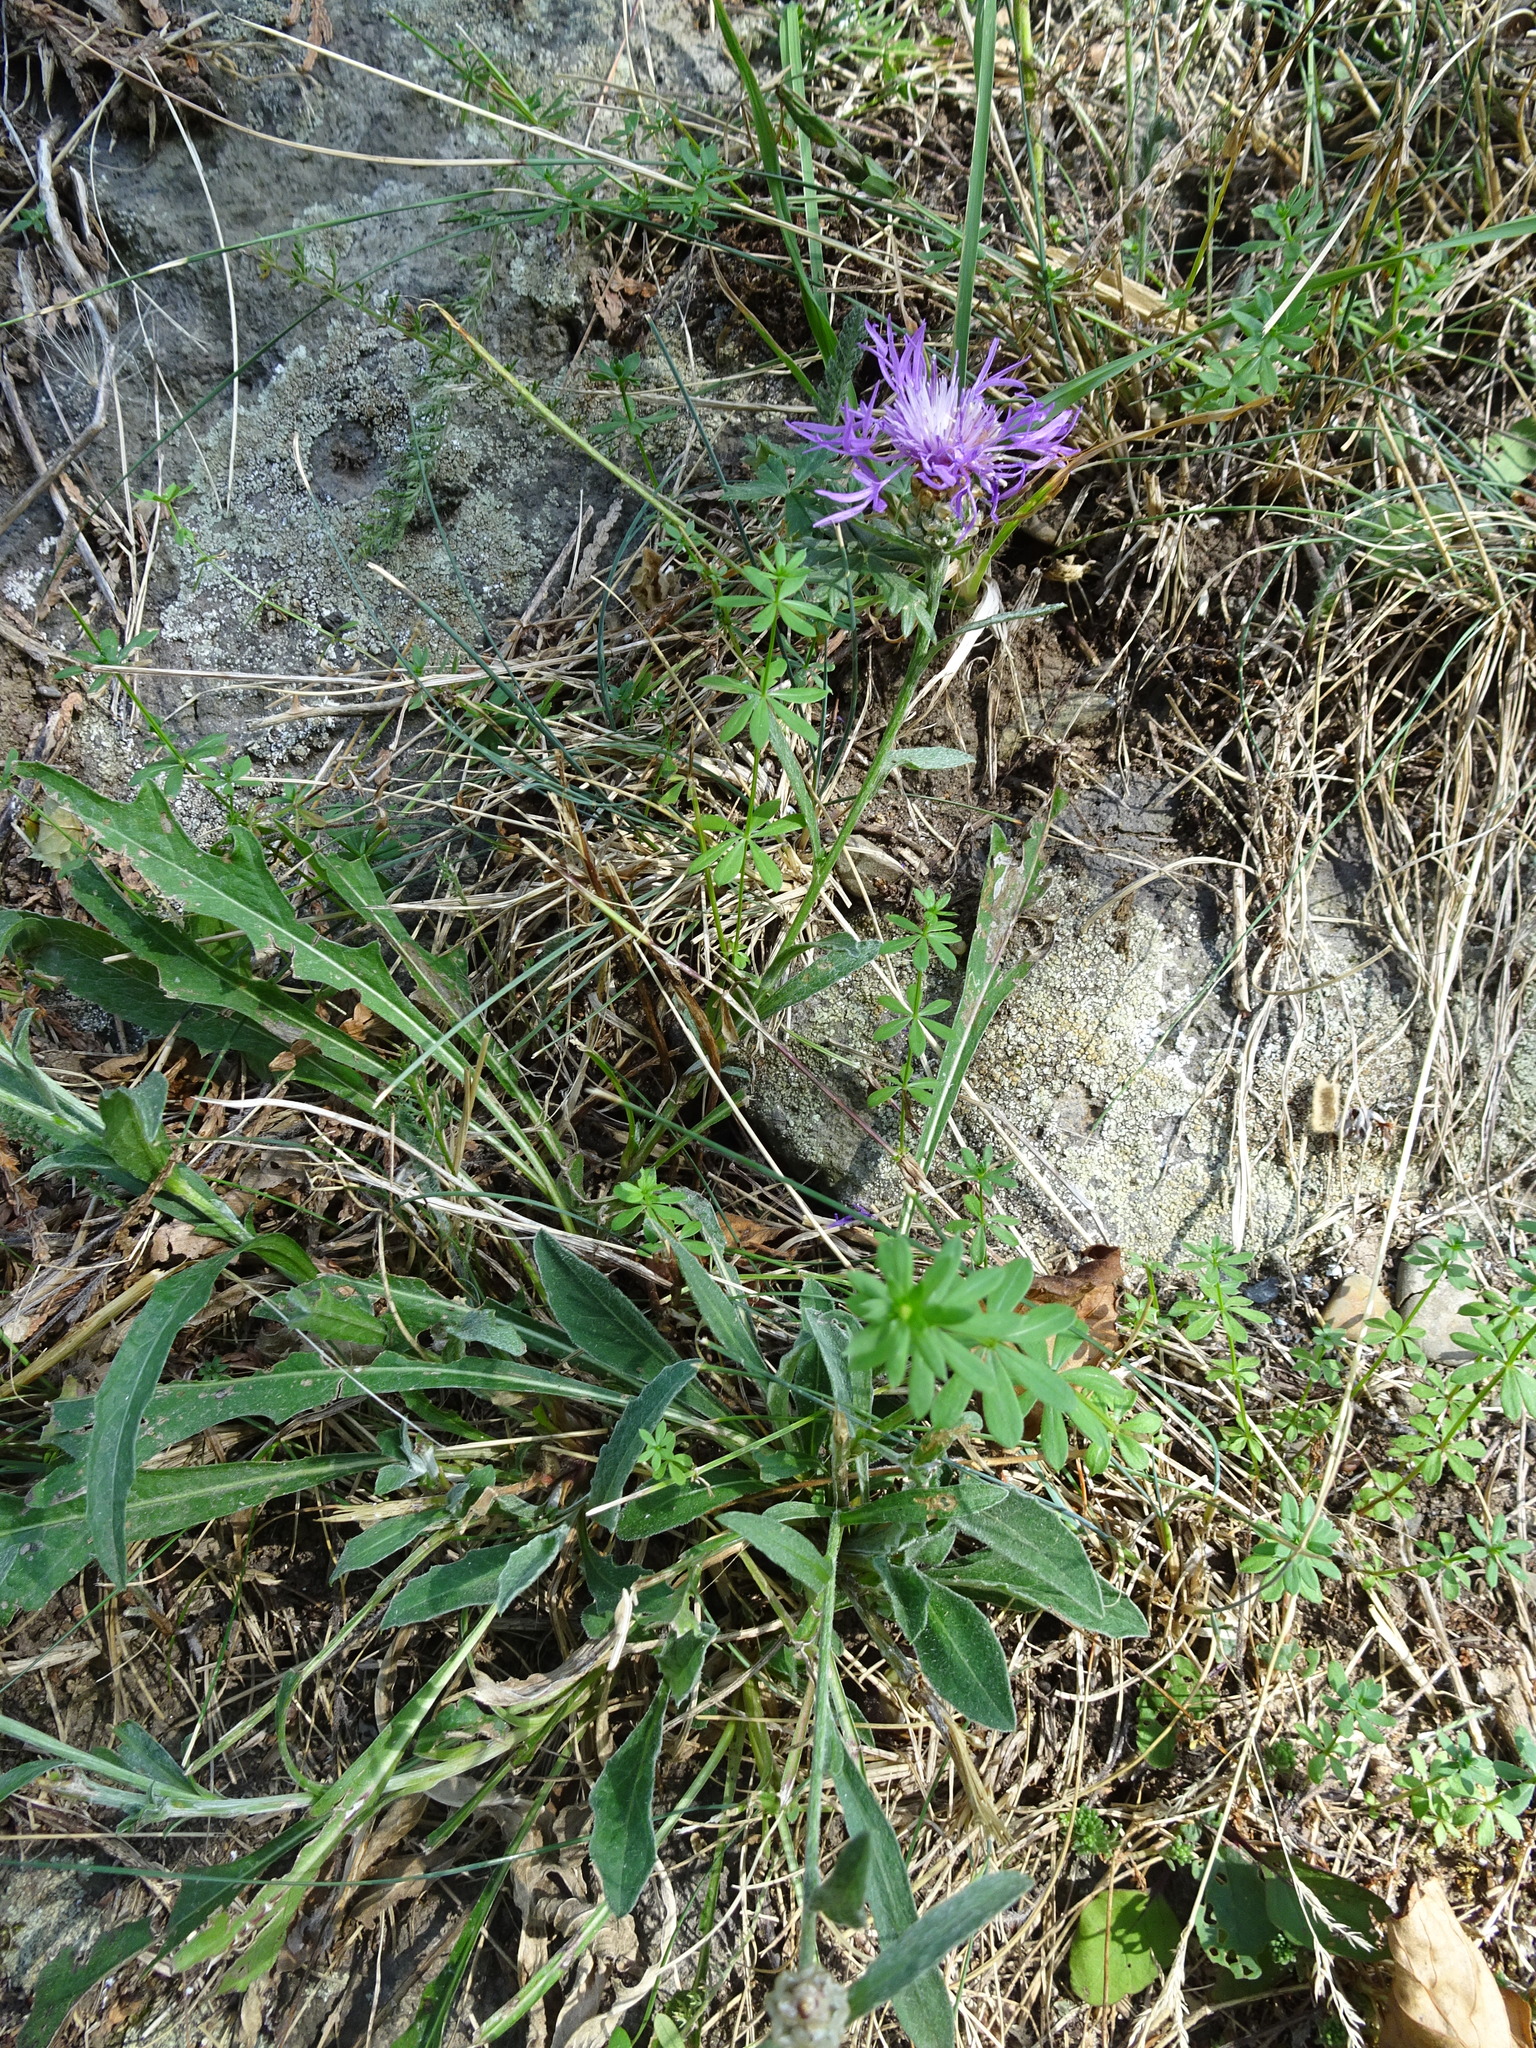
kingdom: Plantae
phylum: Tracheophyta
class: Magnoliopsida
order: Asterales
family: Asteraceae
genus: Centaurea
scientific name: Centaurea jacea
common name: Brown knapweed
